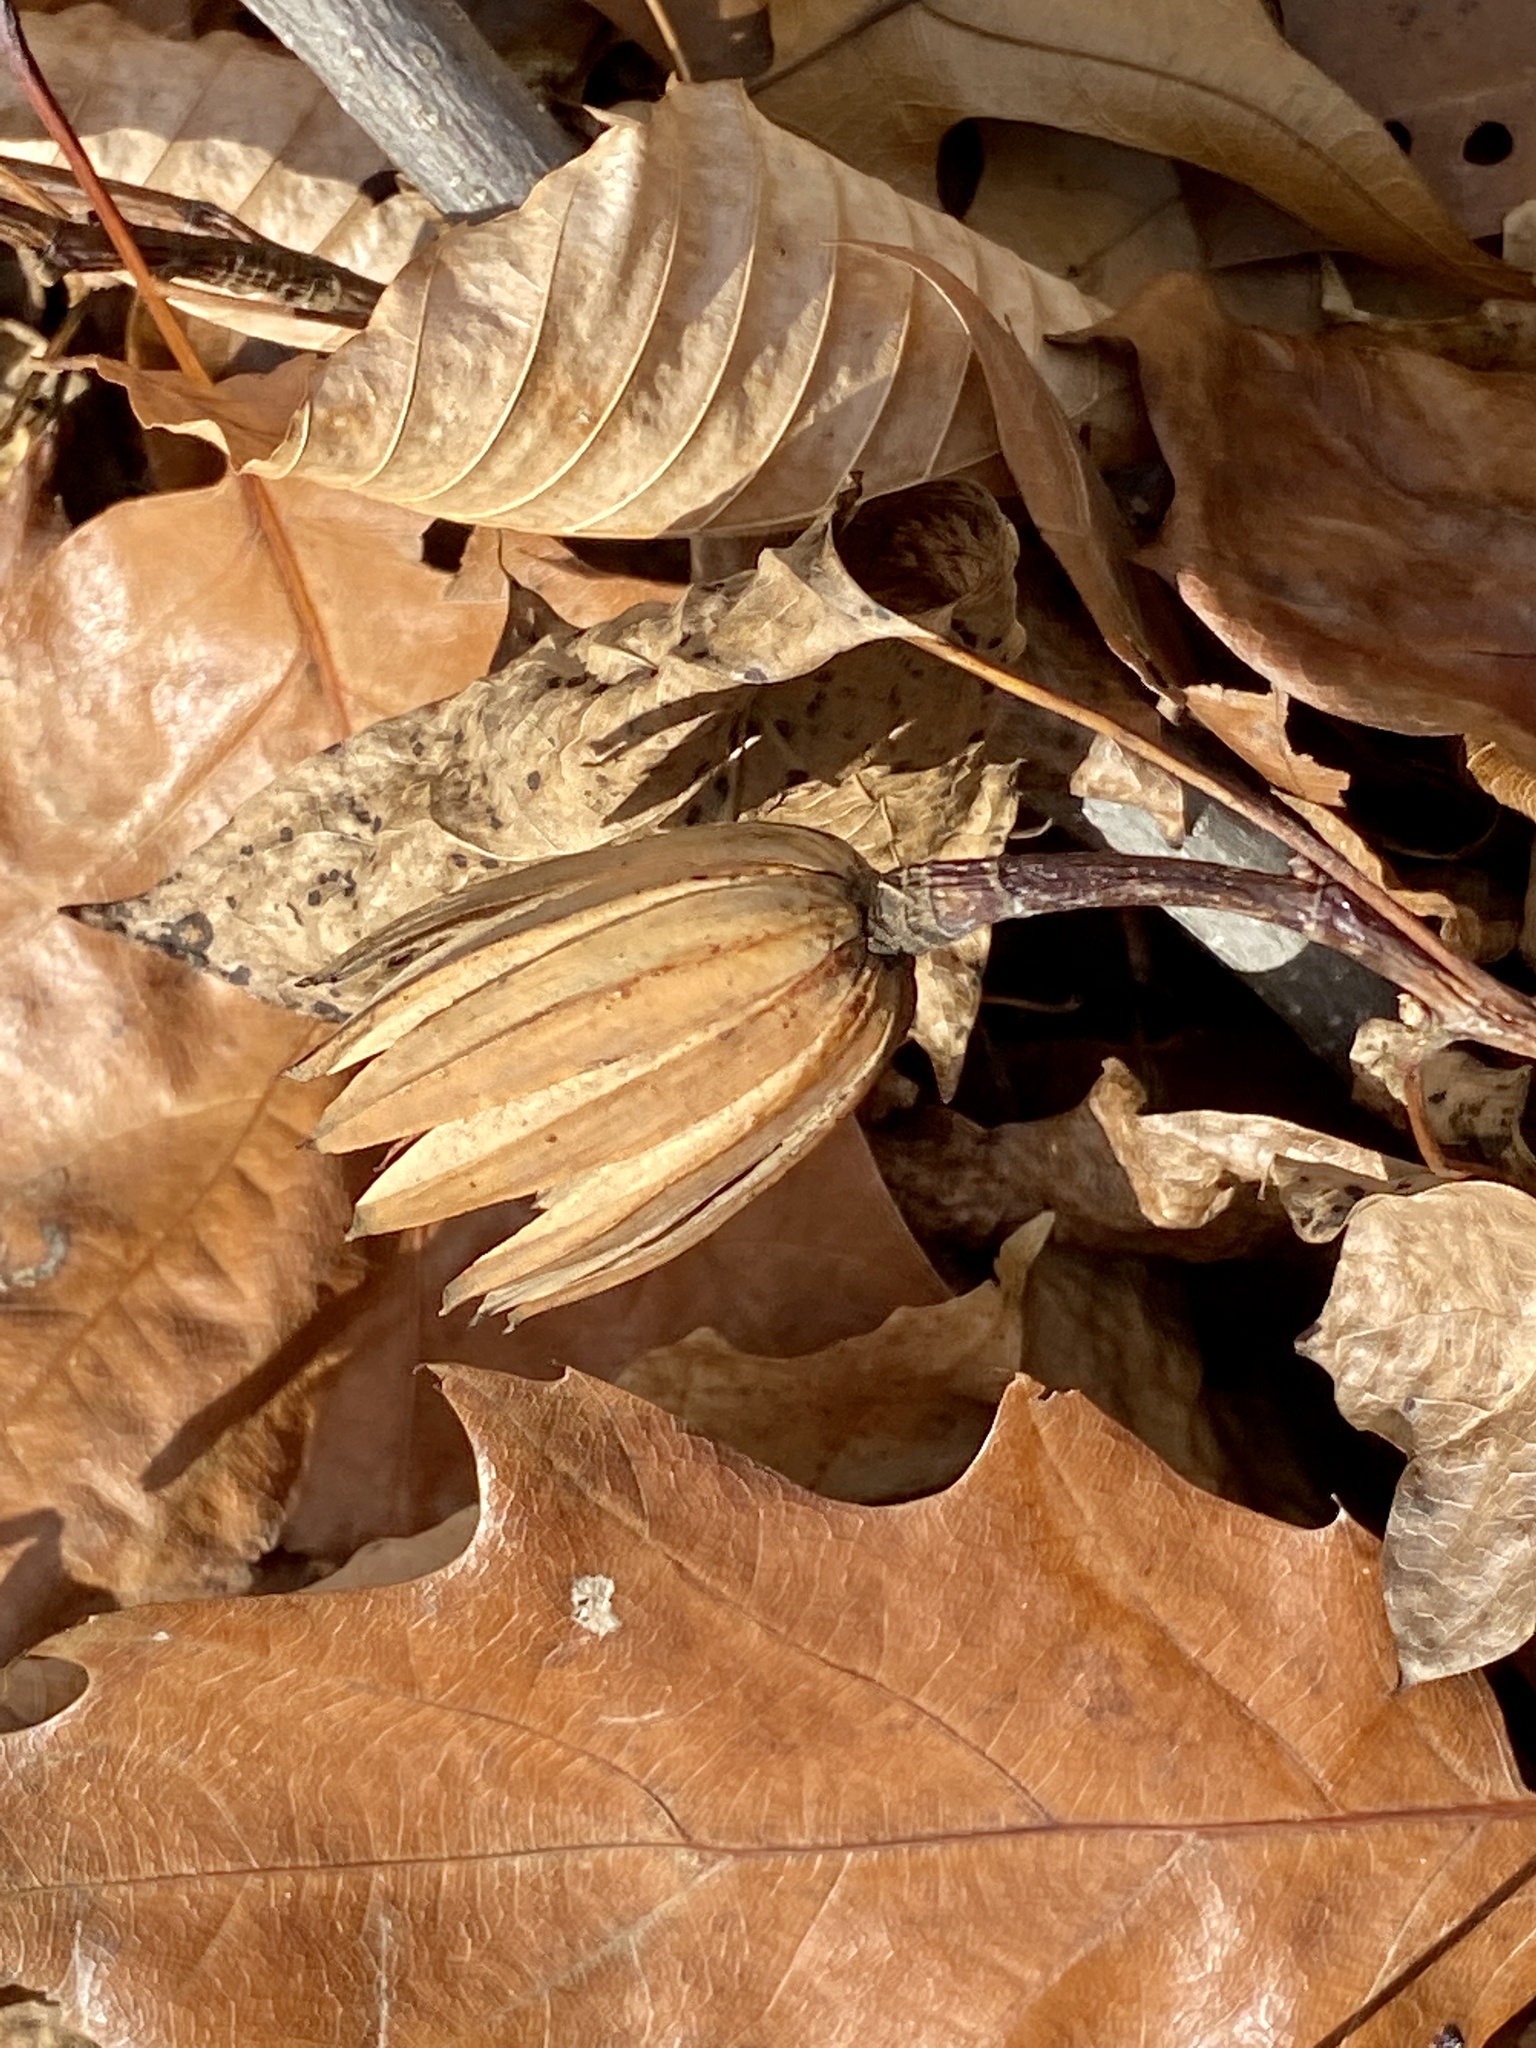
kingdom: Plantae
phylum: Tracheophyta
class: Magnoliopsida
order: Magnoliales
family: Magnoliaceae
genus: Liriodendron
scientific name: Liriodendron tulipifera
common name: Tulip tree
